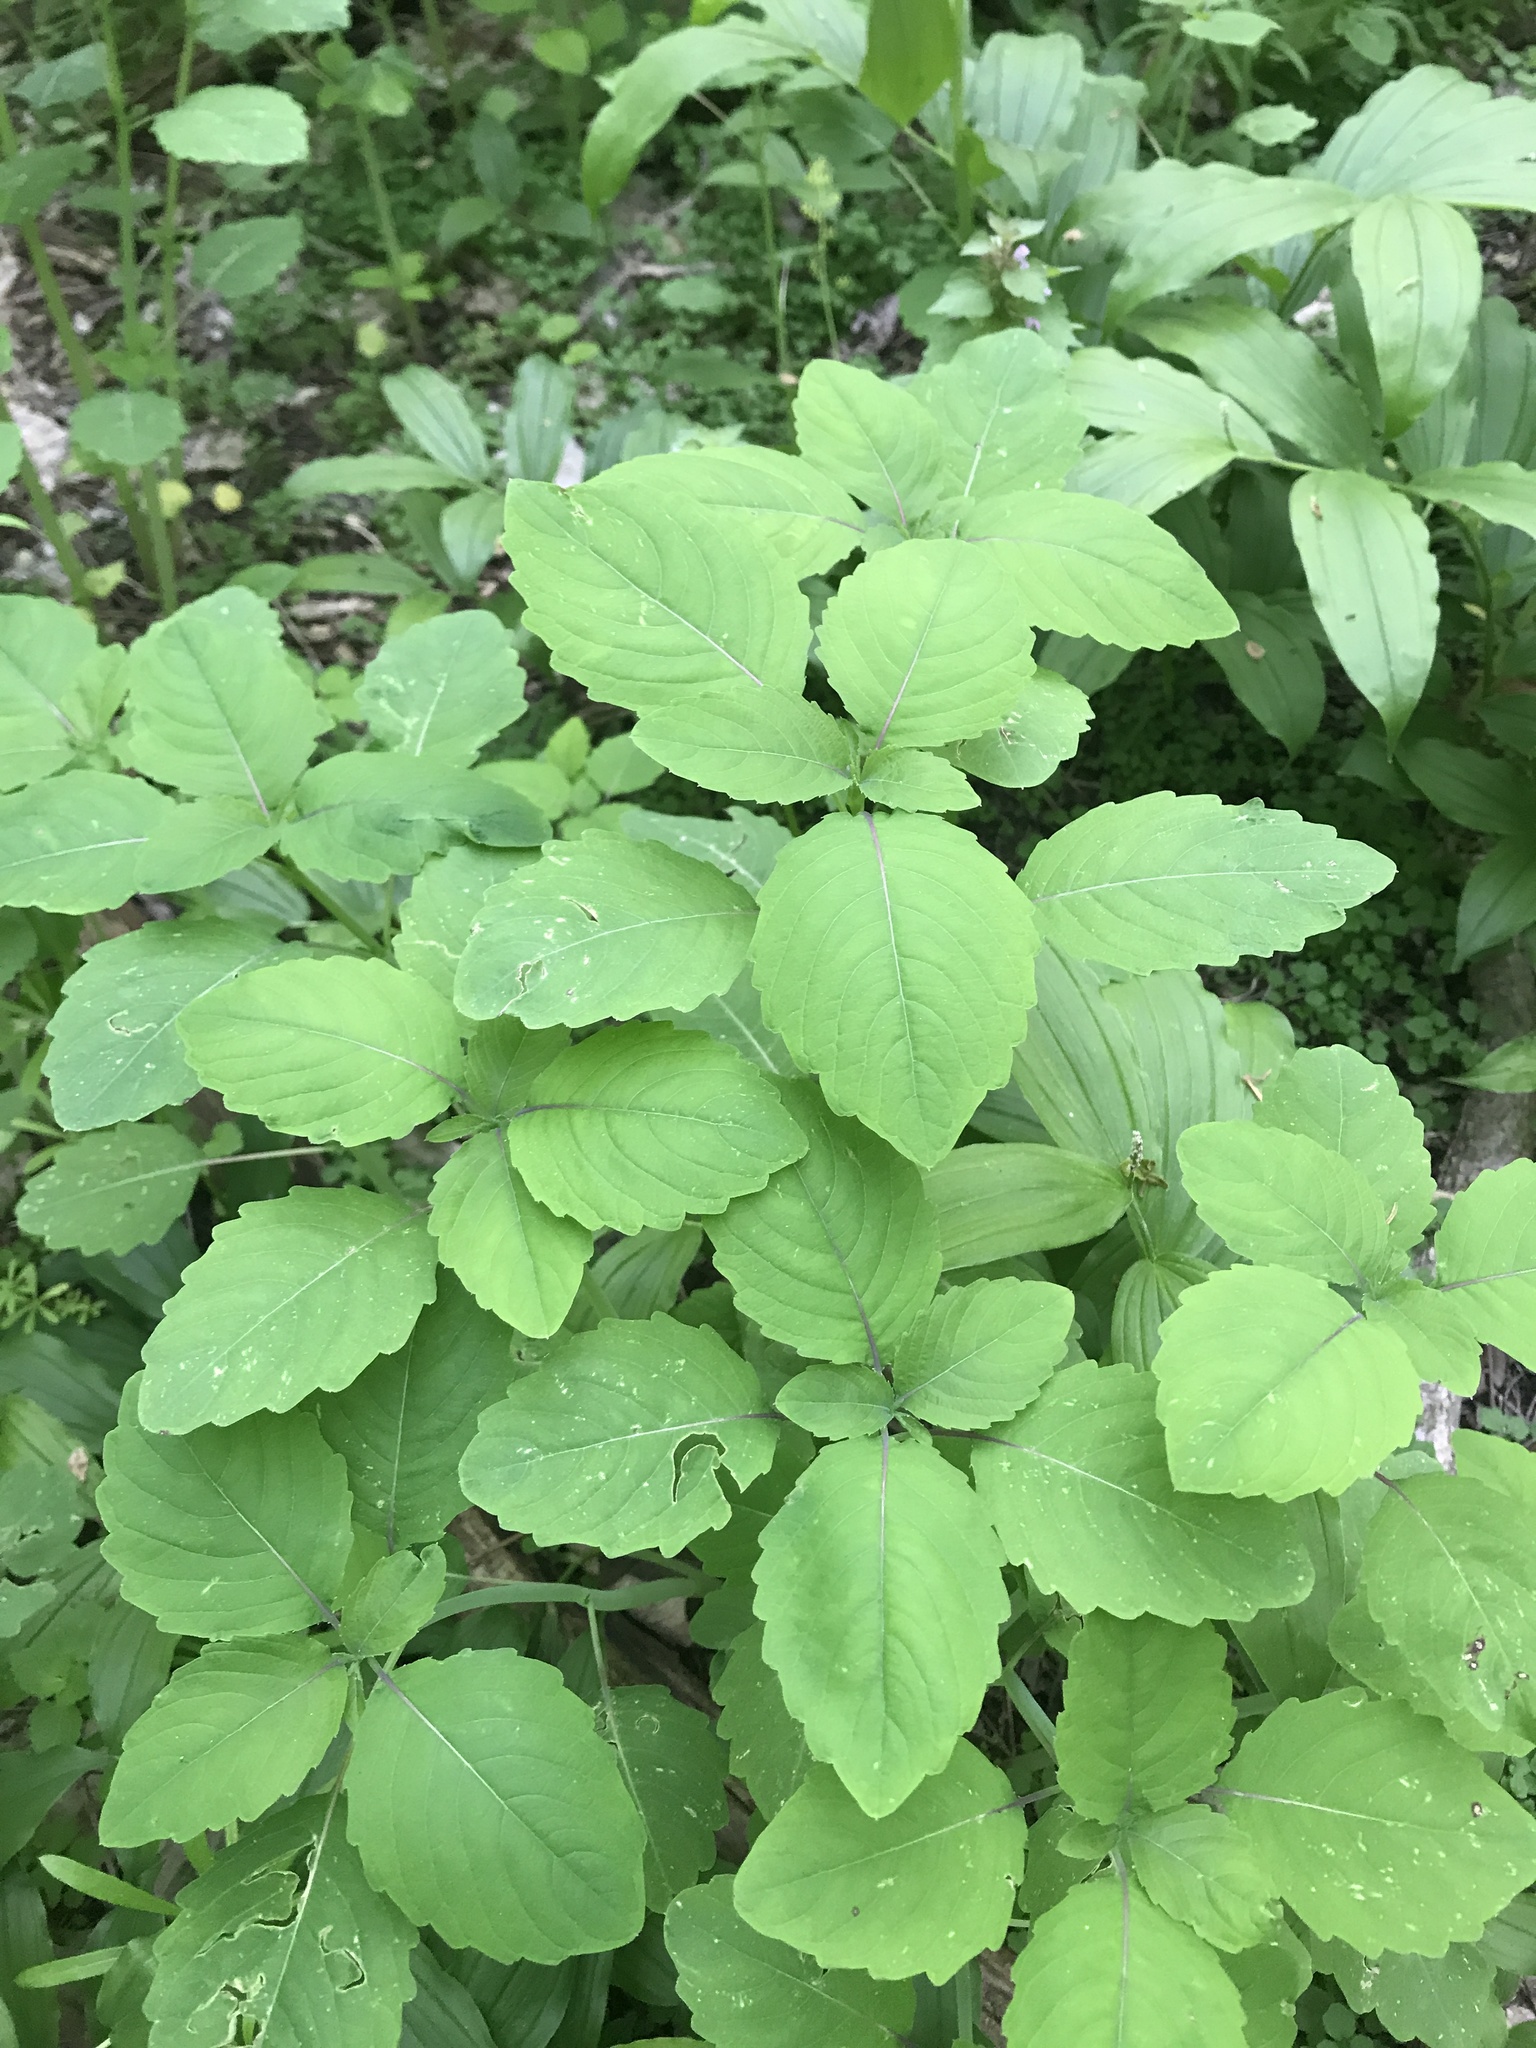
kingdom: Plantae
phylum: Tracheophyta
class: Magnoliopsida
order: Ericales
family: Balsaminaceae
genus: Impatiens
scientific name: Impatiens capensis
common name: Orange balsam
